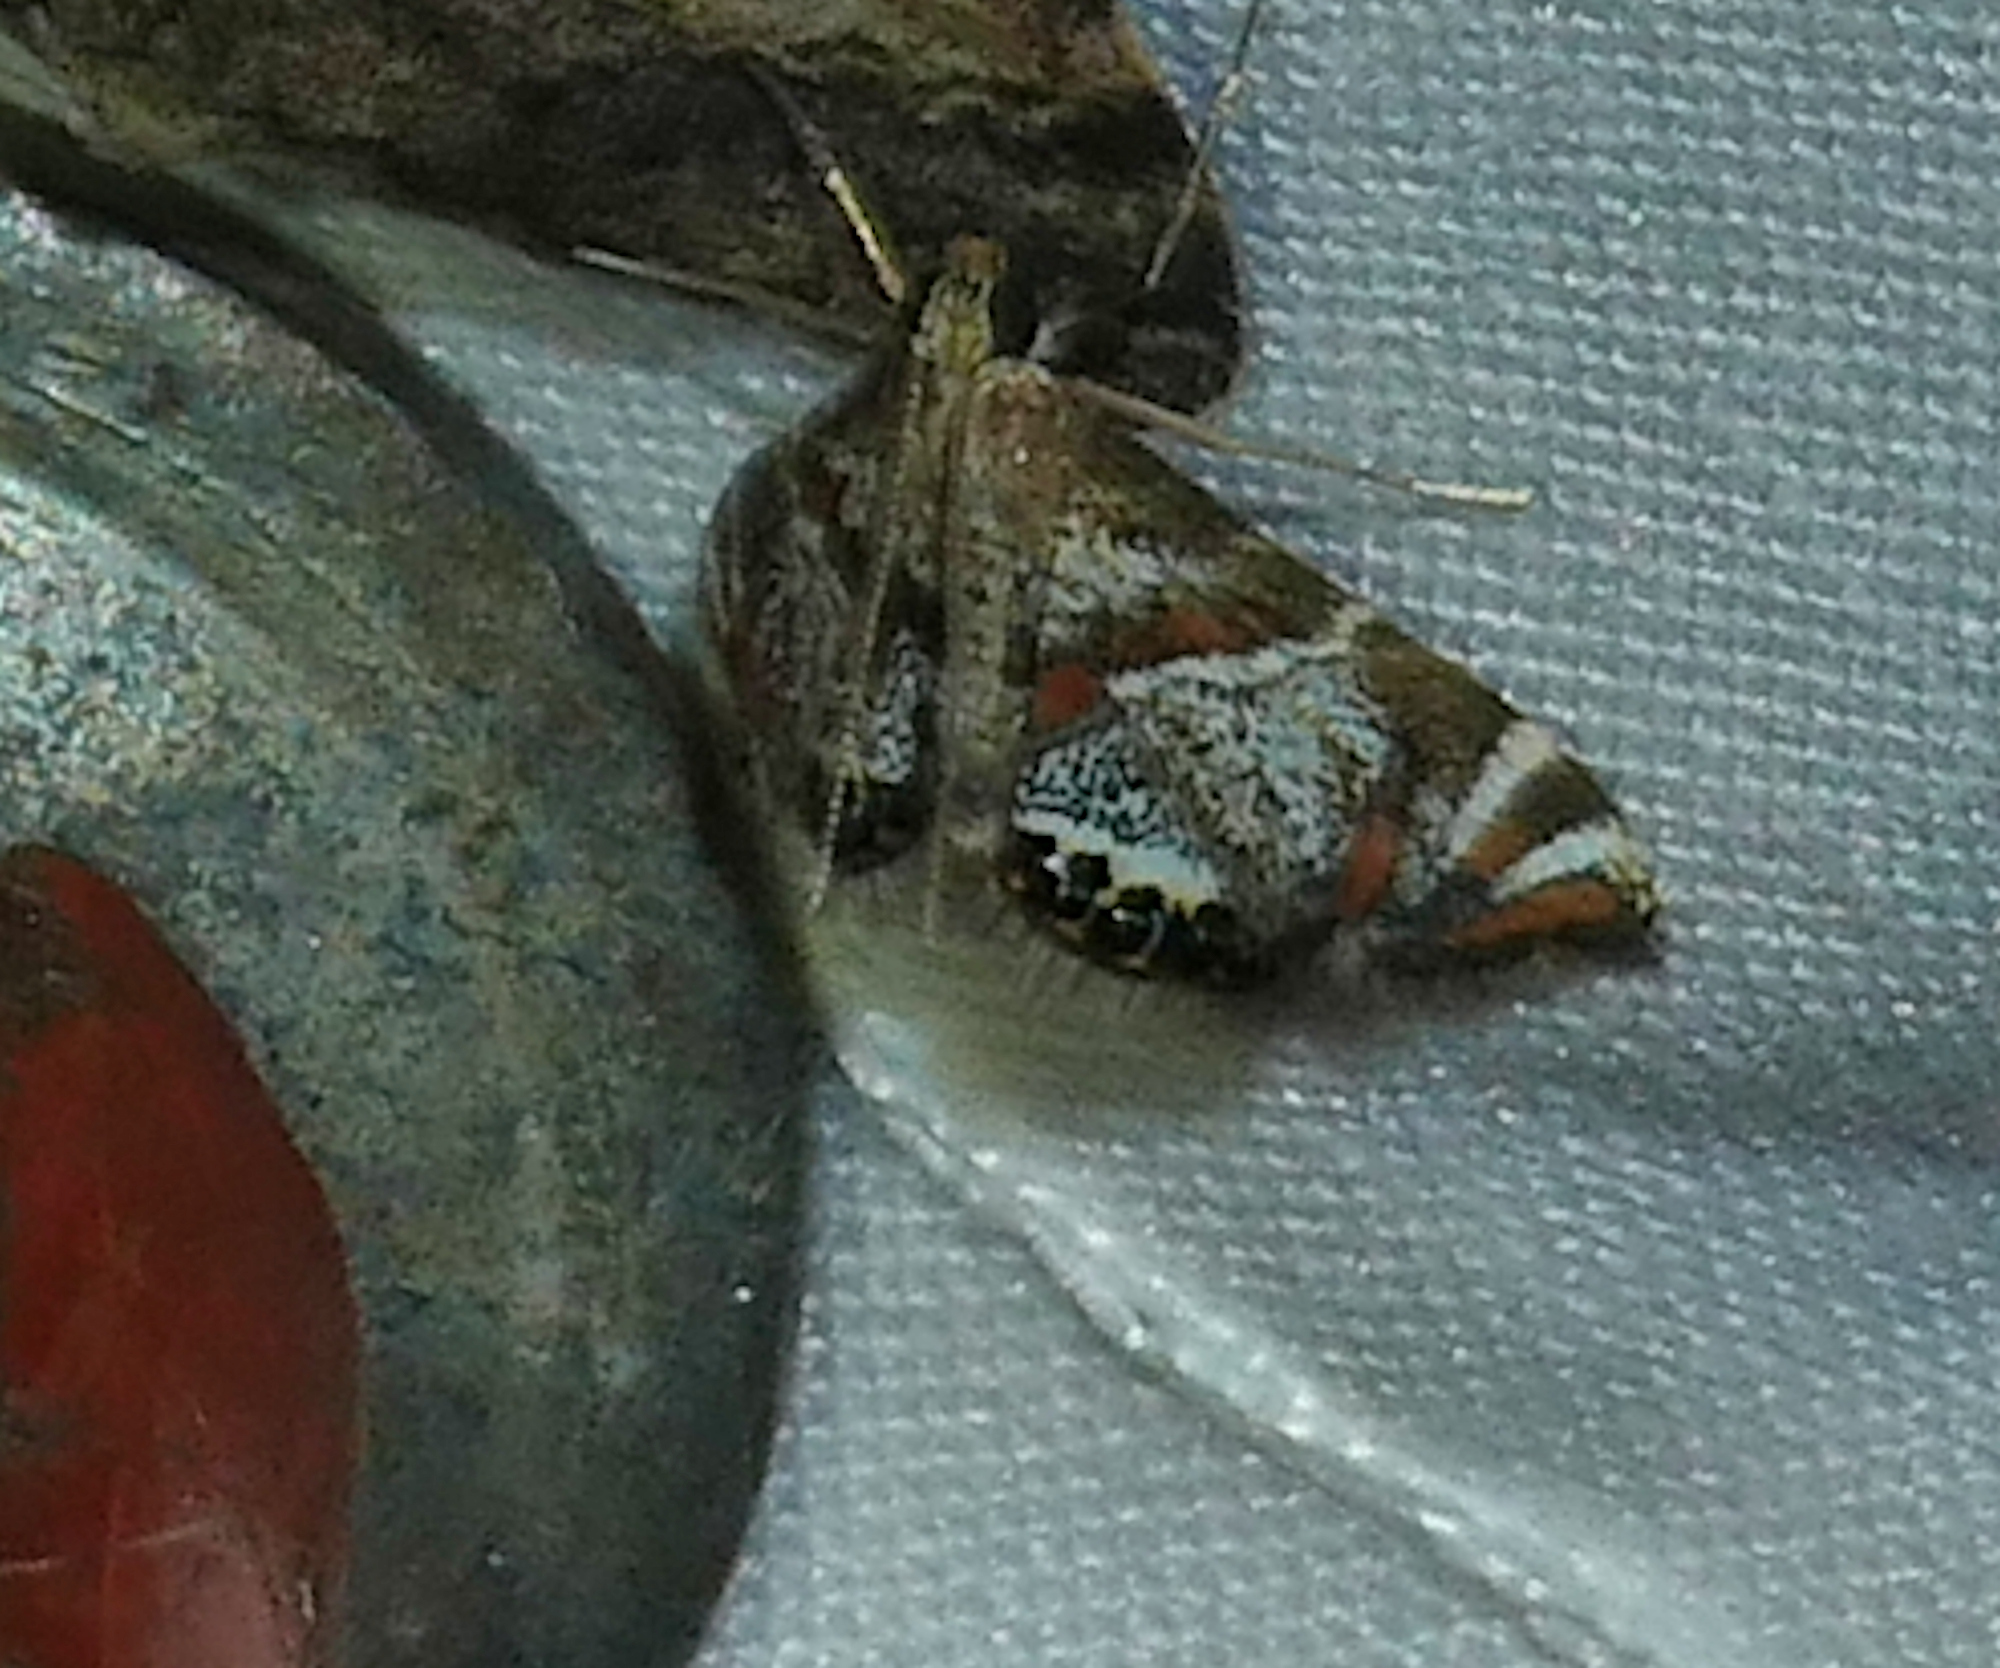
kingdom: Animalia
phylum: Arthropoda
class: Insecta
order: Lepidoptera
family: Crambidae
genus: Petrophila
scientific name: Petrophila jaliscalis
